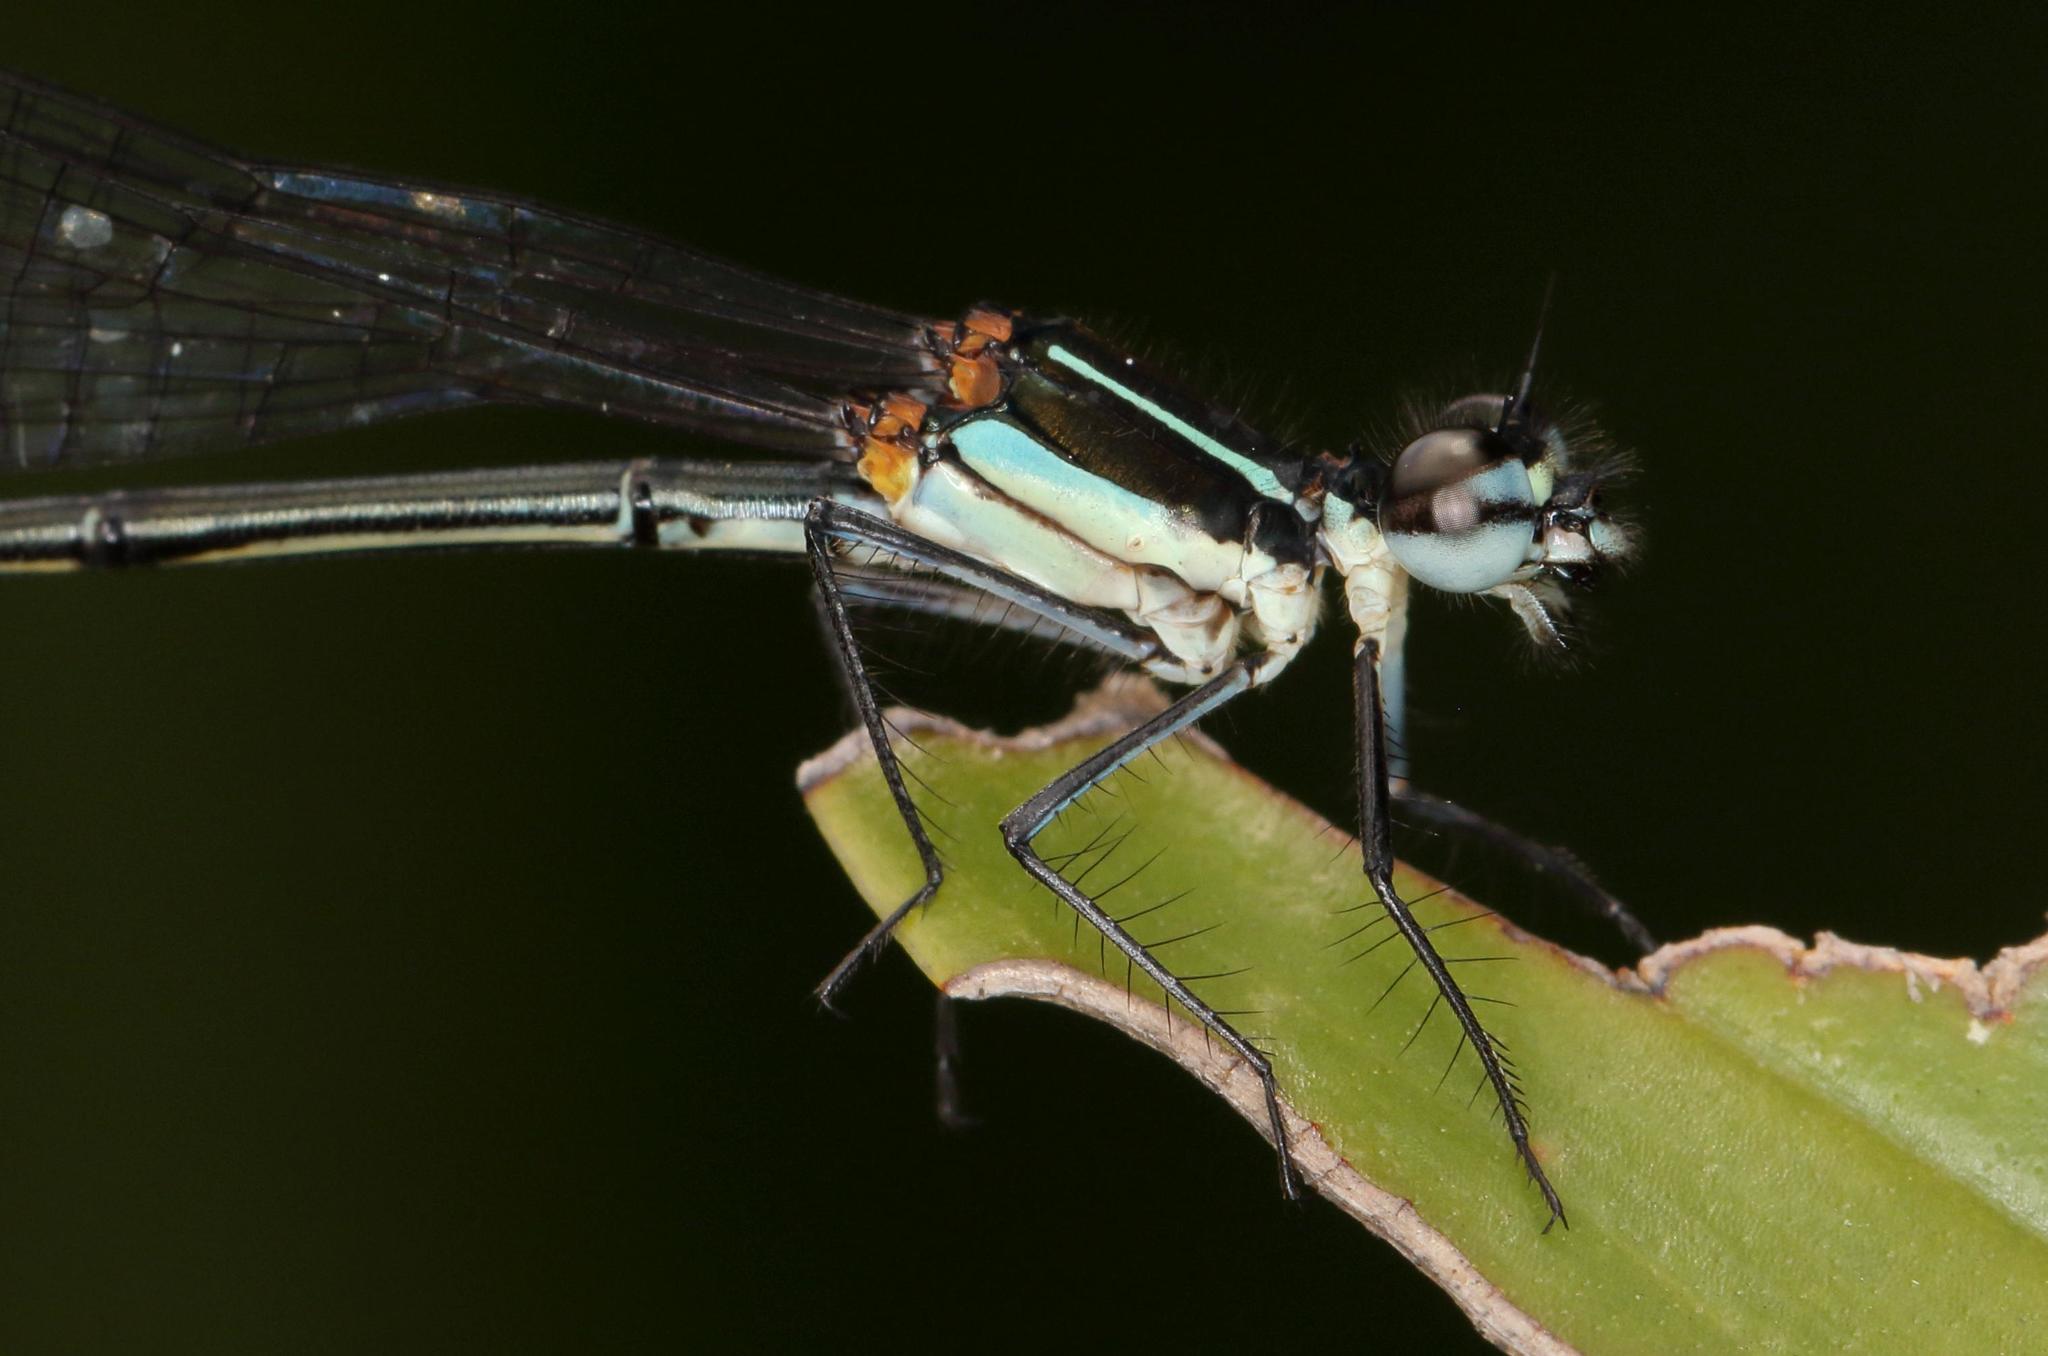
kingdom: Animalia
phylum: Arthropoda
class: Insecta
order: Odonata
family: Platycnemididae
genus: Allocnemis
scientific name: Allocnemis leucosticta
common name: Goldtail
